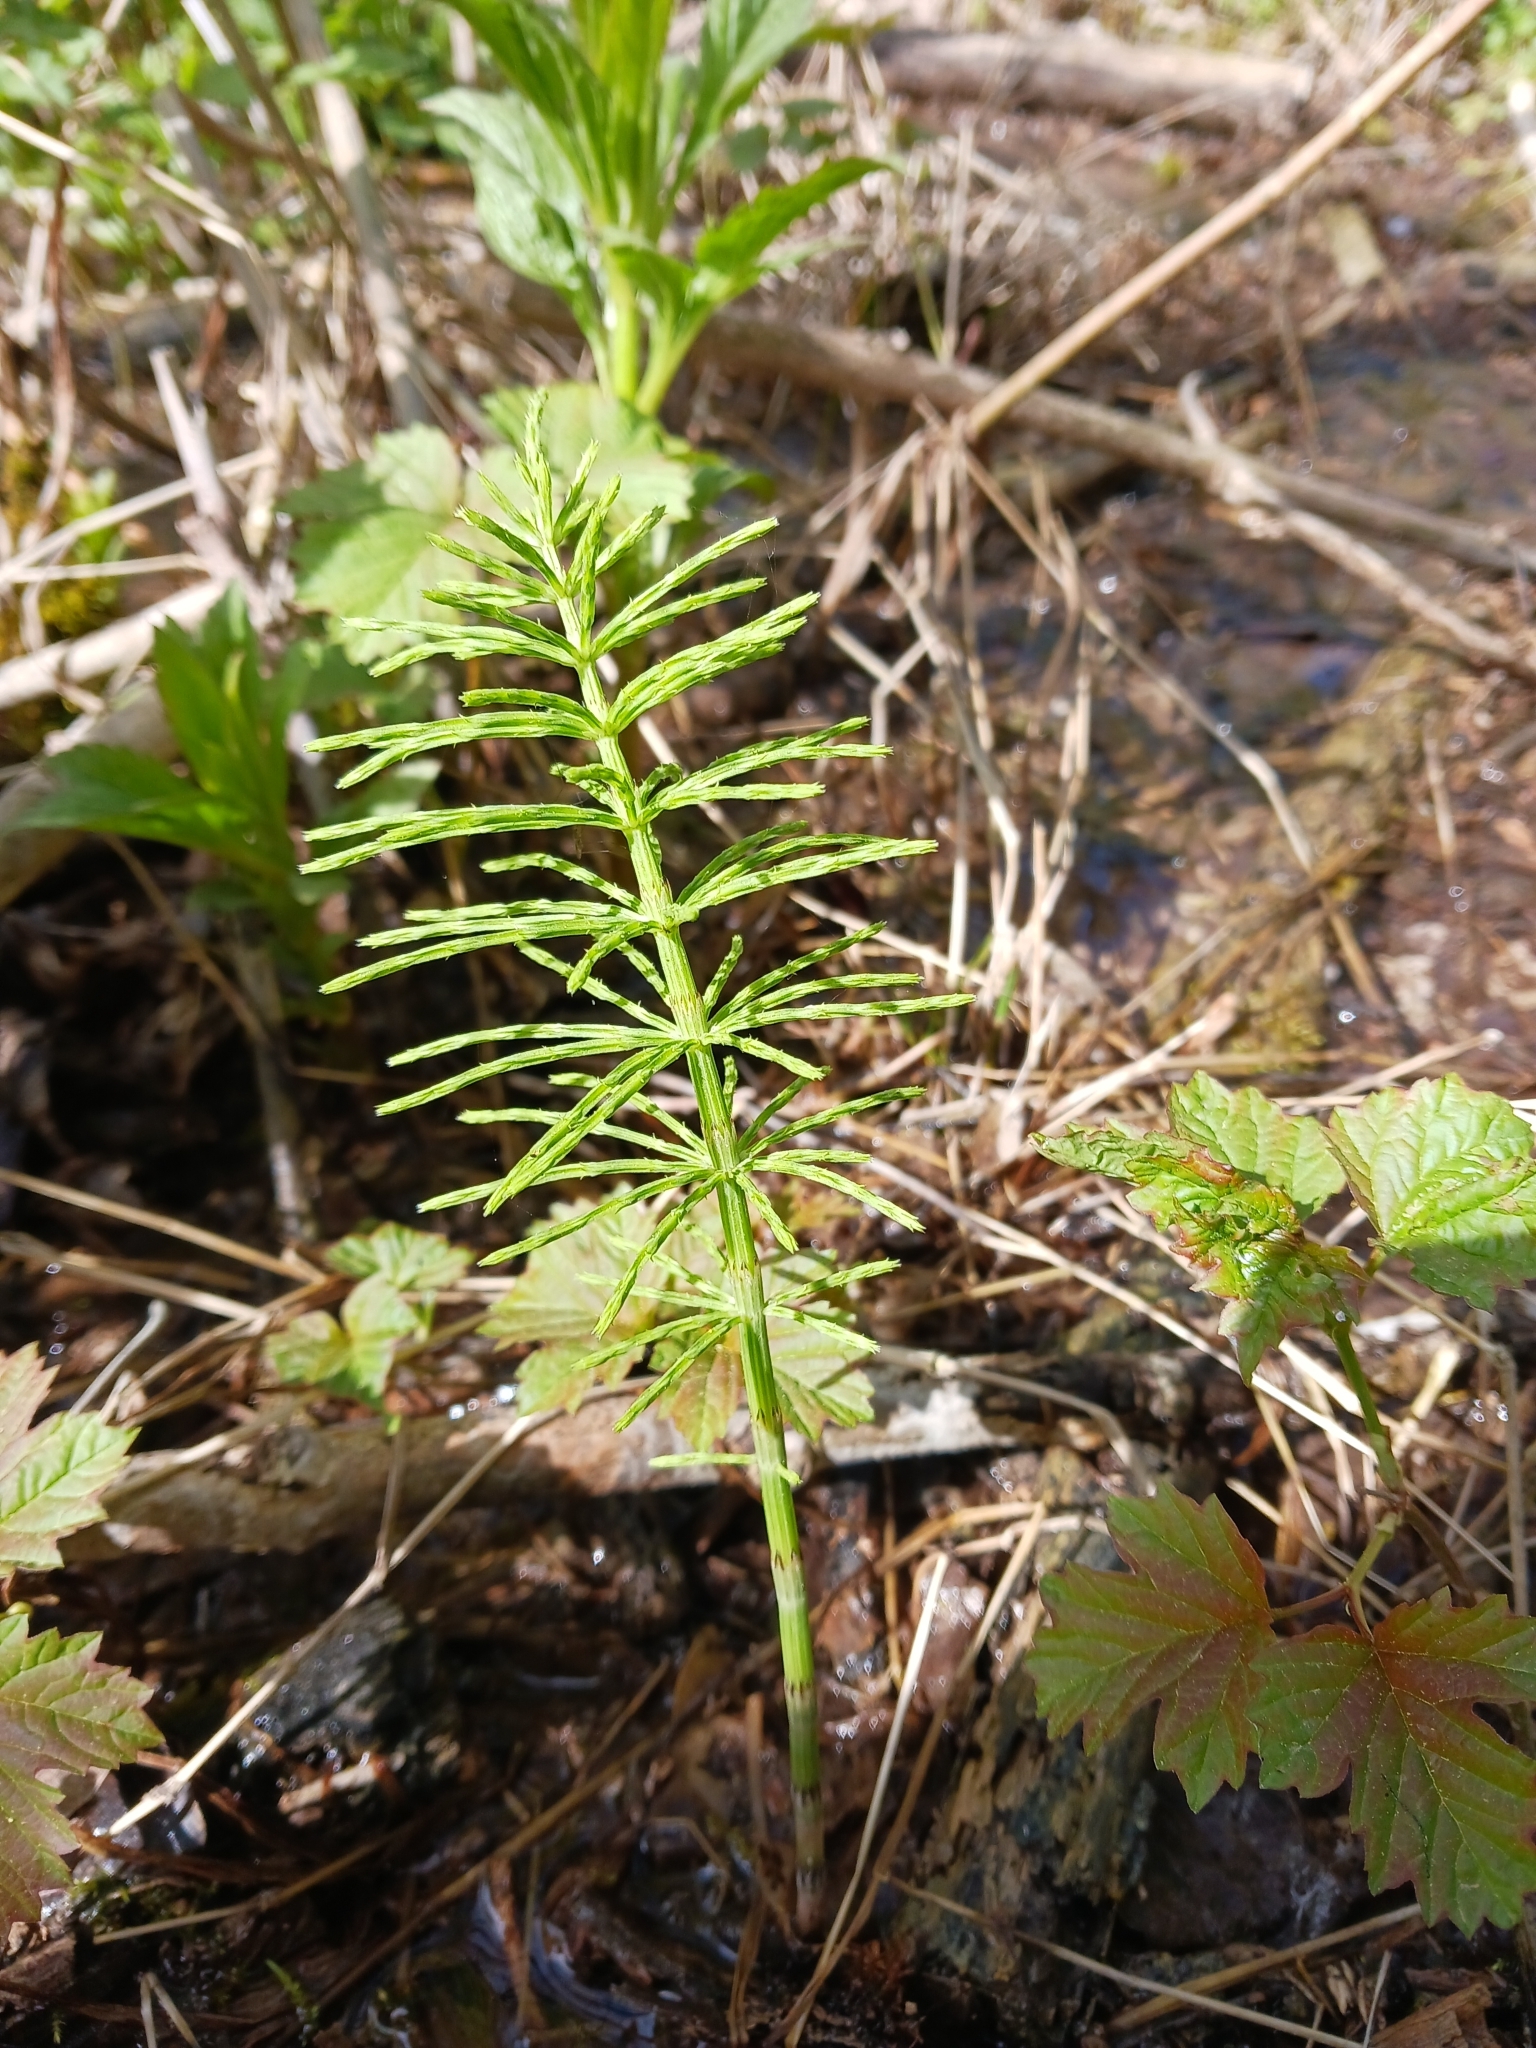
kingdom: Plantae
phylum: Tracheophyta
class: Polypodiopsida
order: Equisetales
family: Equisetaceae
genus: Equisetum
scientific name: Equisetum arvense
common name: Field horsetail
